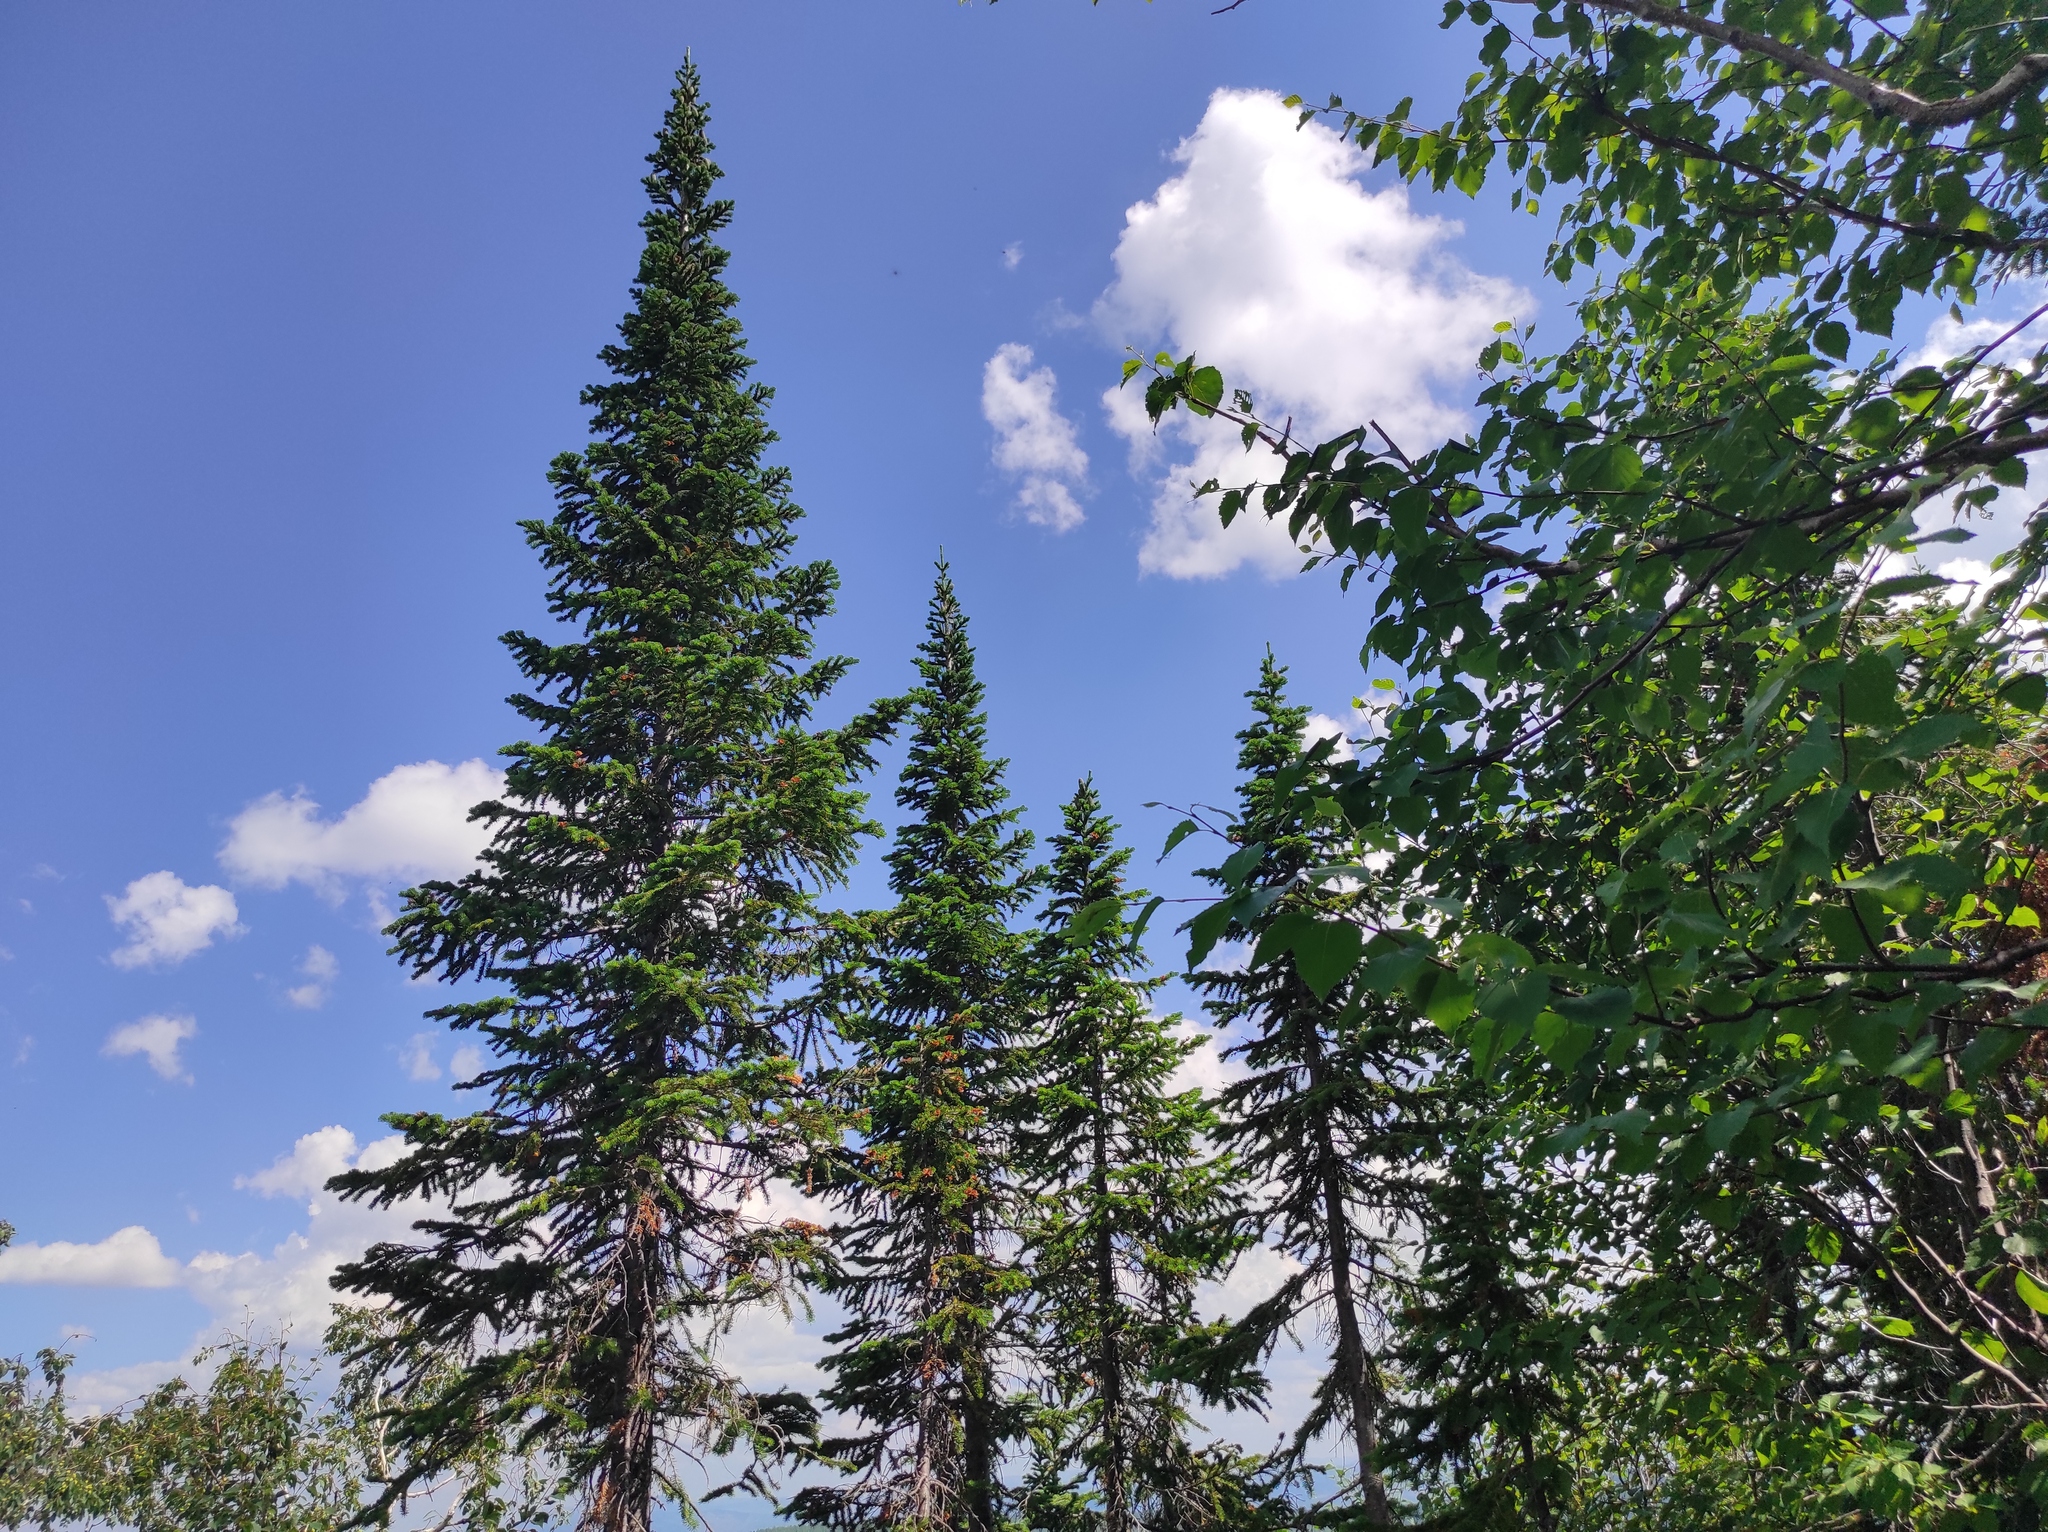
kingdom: Plantae
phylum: Tracheophyta
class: Pinopsida
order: Pinales
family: Pinaceae
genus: Abies
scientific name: Abies sibirica
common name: Siberian fir
